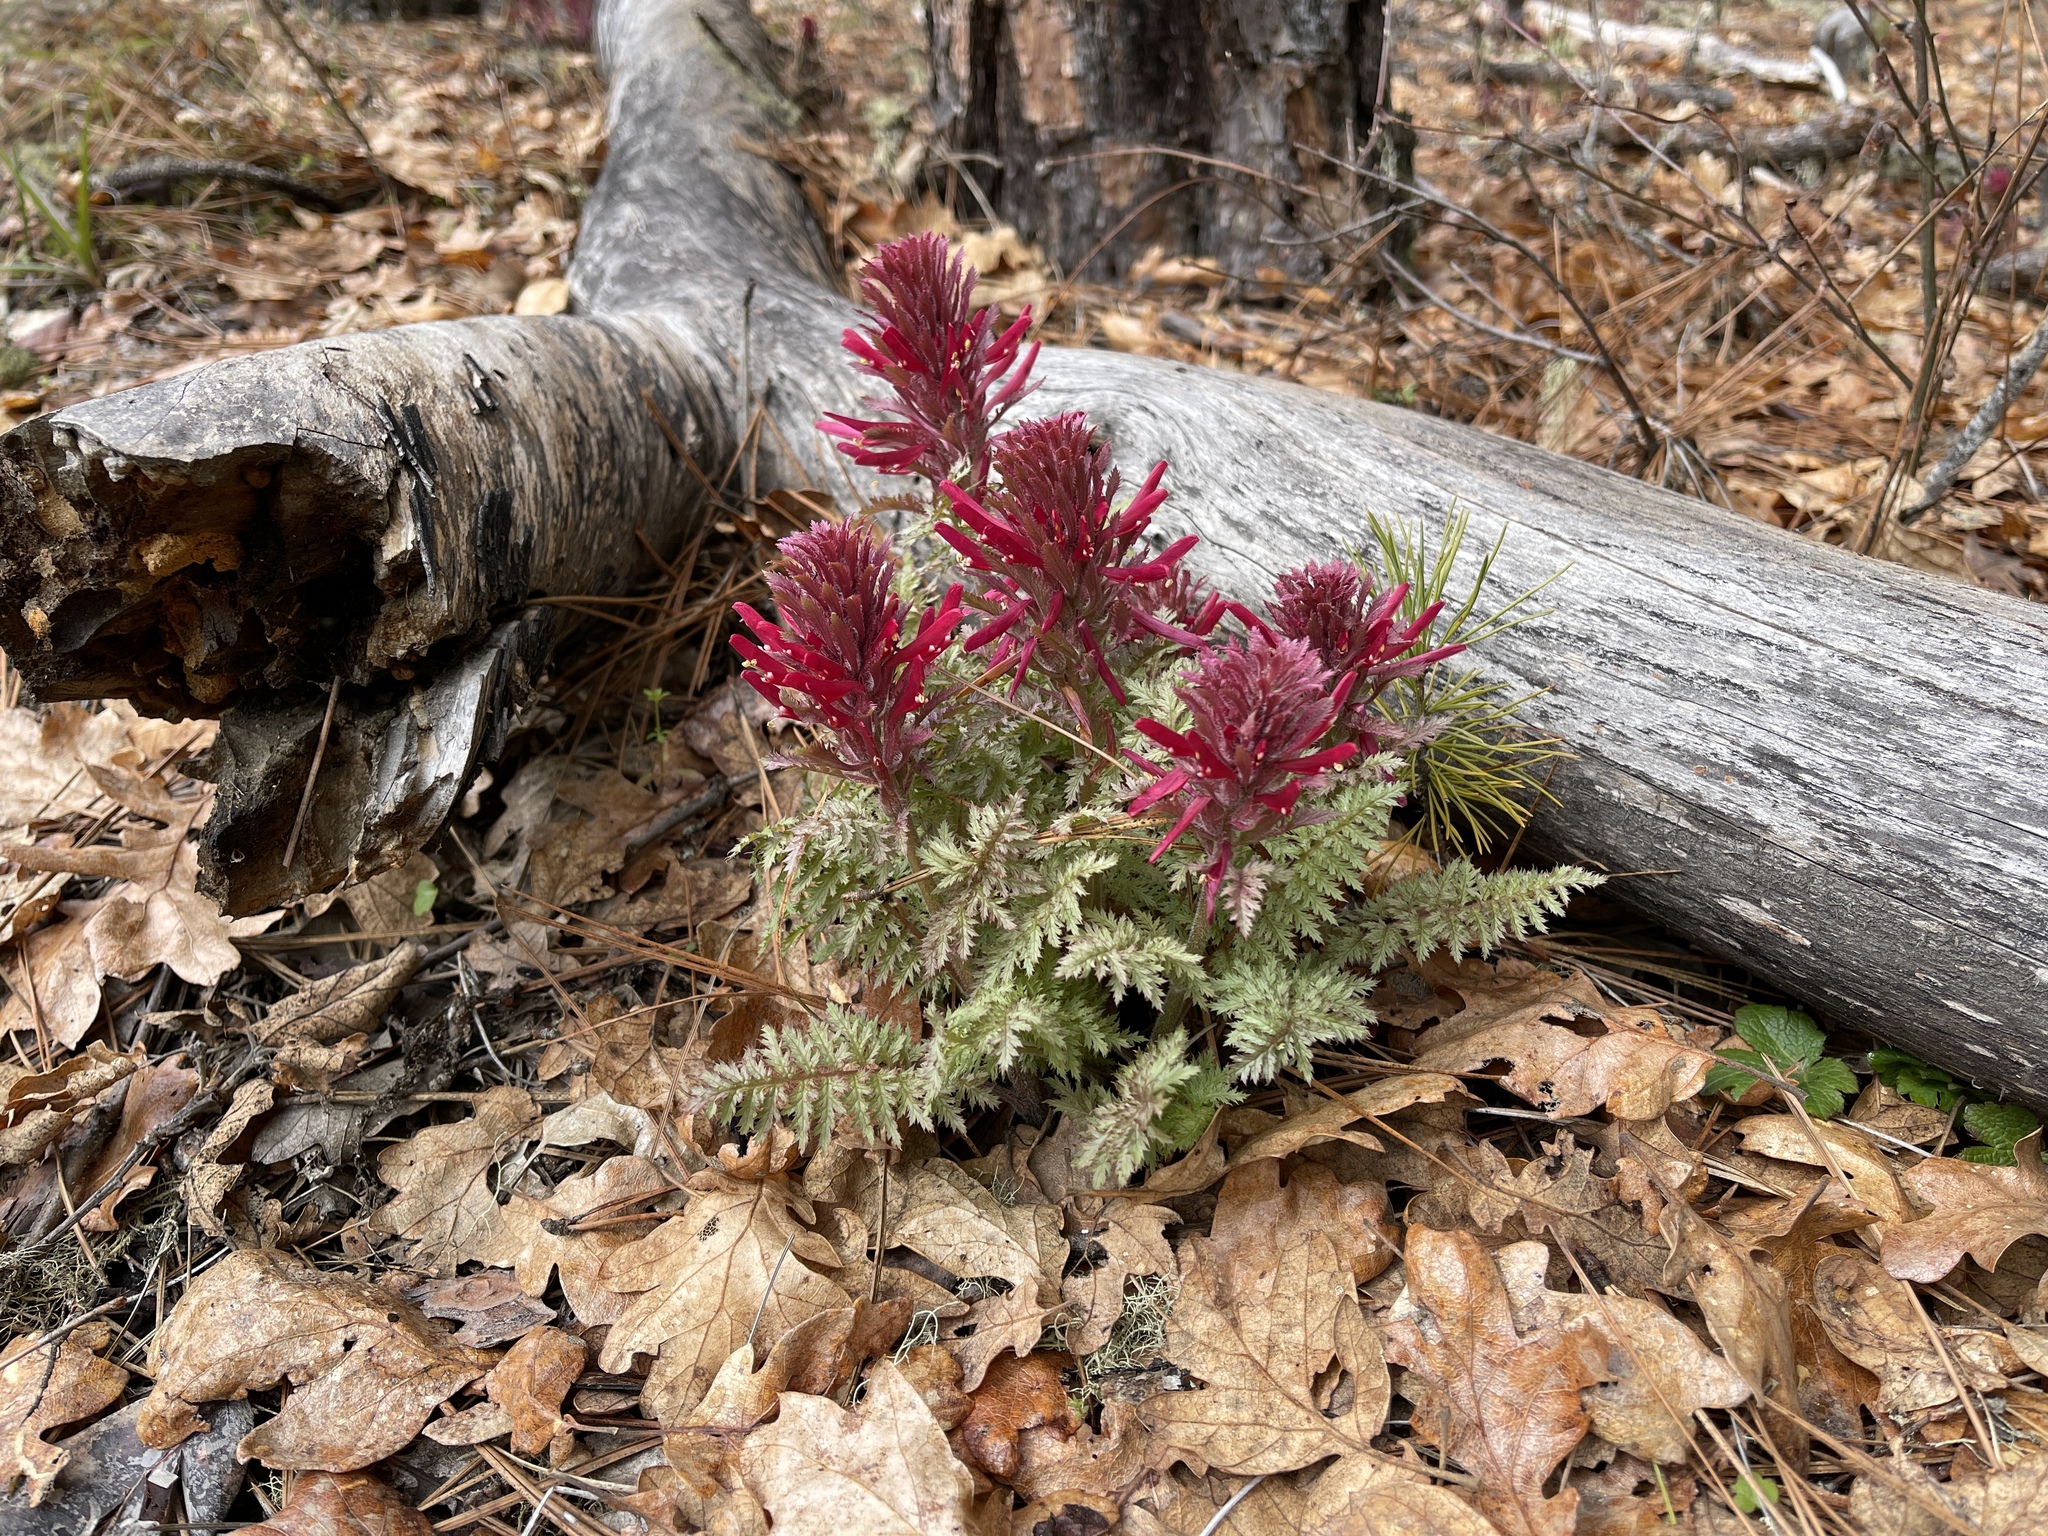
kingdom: Plantae
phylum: Tracheophyta
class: Magnoliopsida
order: Lamiales
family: Orobanchaceae
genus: Pedicularis
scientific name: Pedicularis densiflora
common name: Indian warrior
